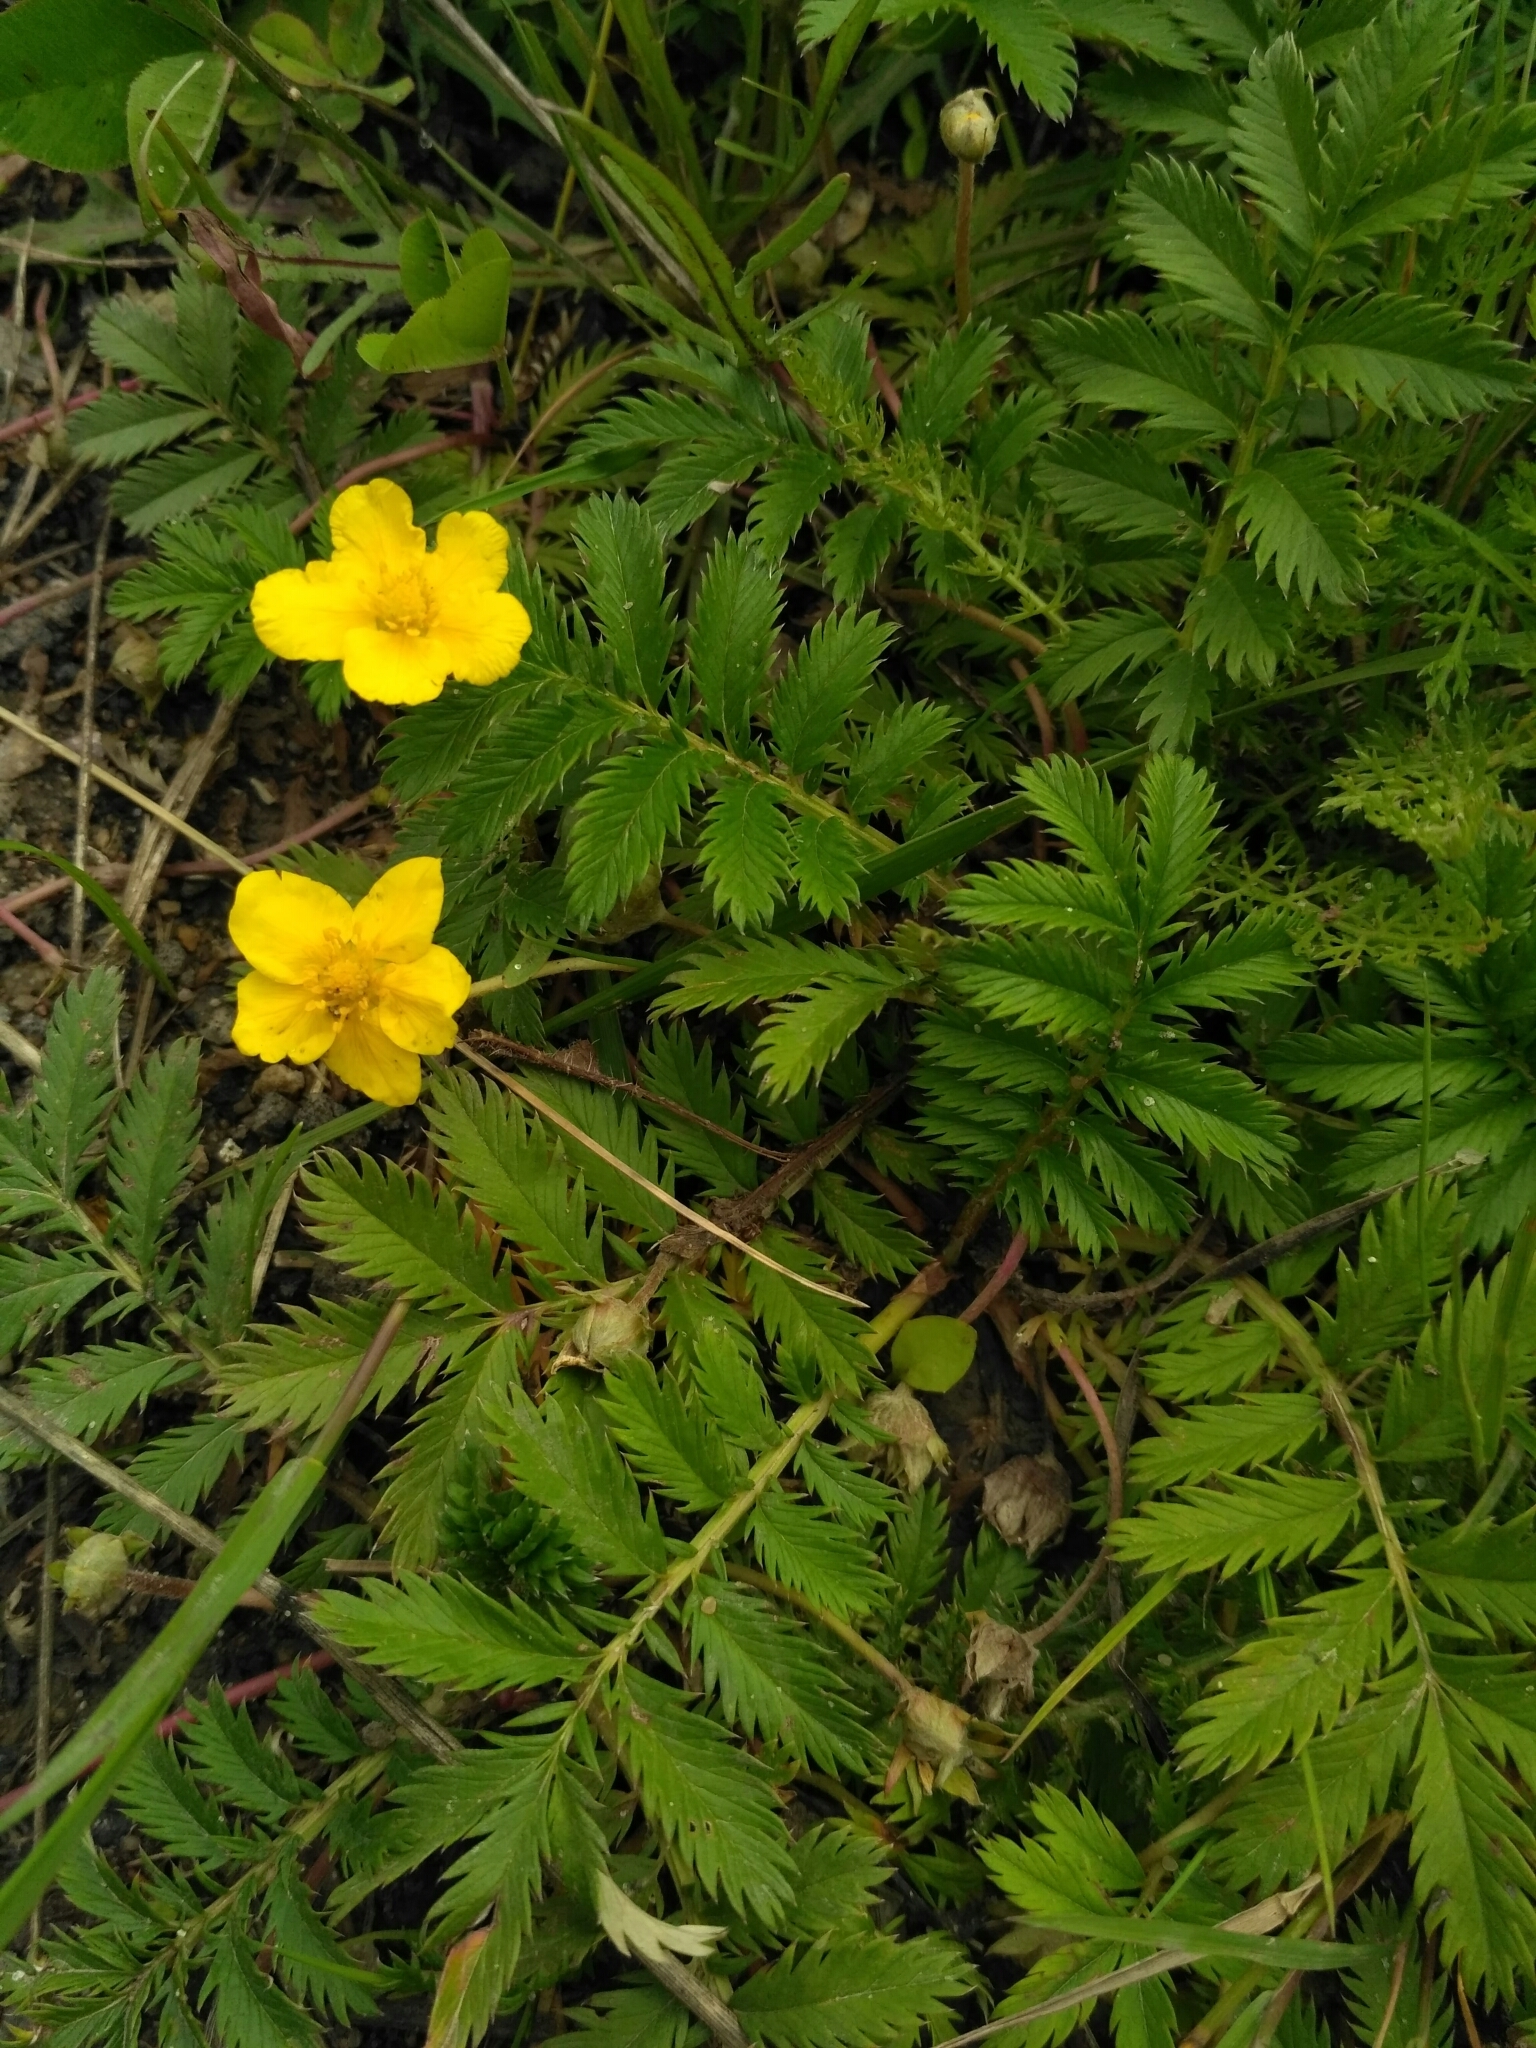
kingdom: Plantae
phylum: Tracheophyta
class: Magnoliopsida
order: Rosales
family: Rosaceae
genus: Argentina
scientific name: Argentina anserina
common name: Common silverweed
